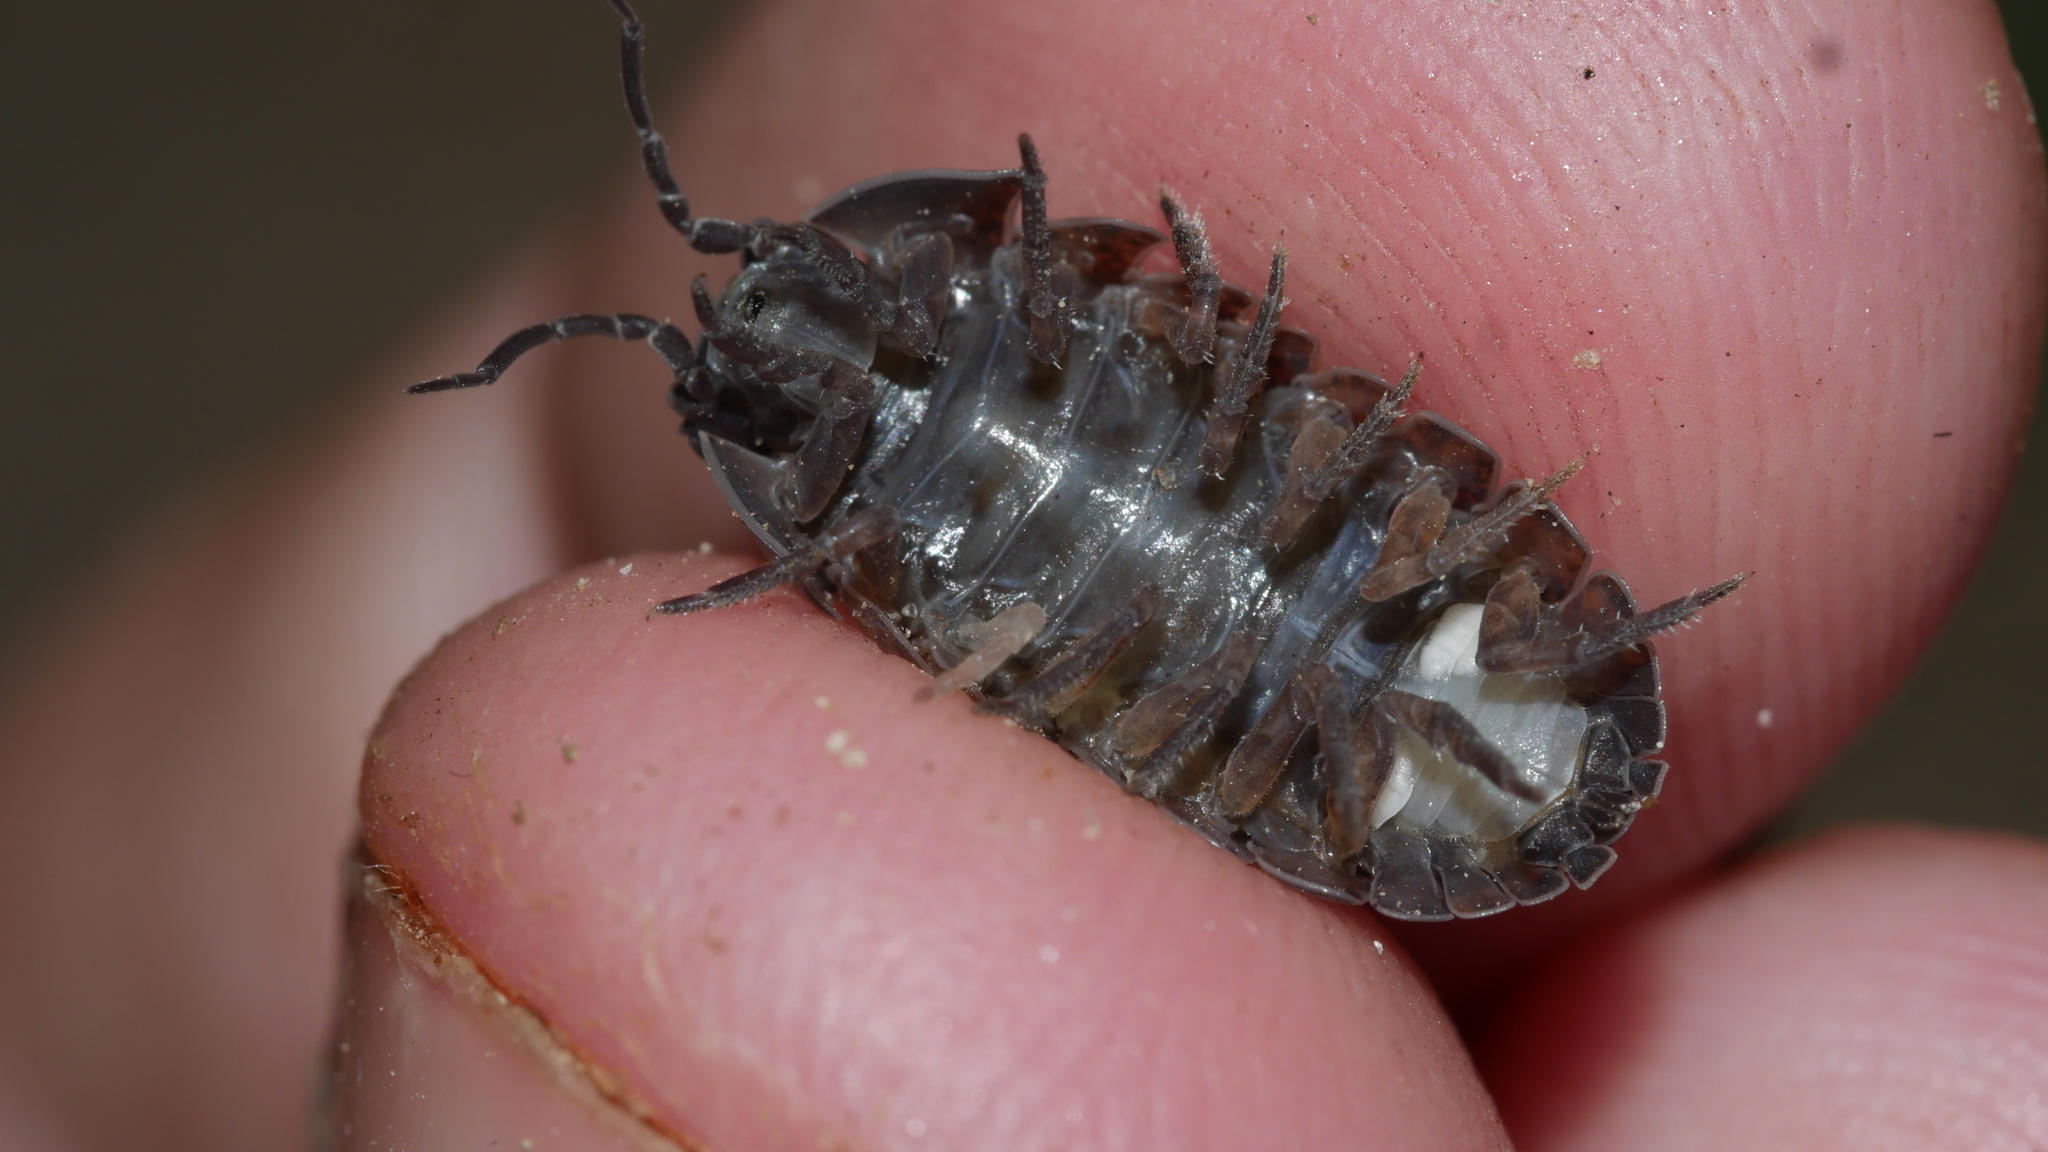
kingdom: Animalia
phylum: Arthropoda
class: Malacostraca
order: Isopoda
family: Armadillidiidae
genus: Armadillidium
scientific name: Armadillidium vulgare
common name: Common pill woodlouse
